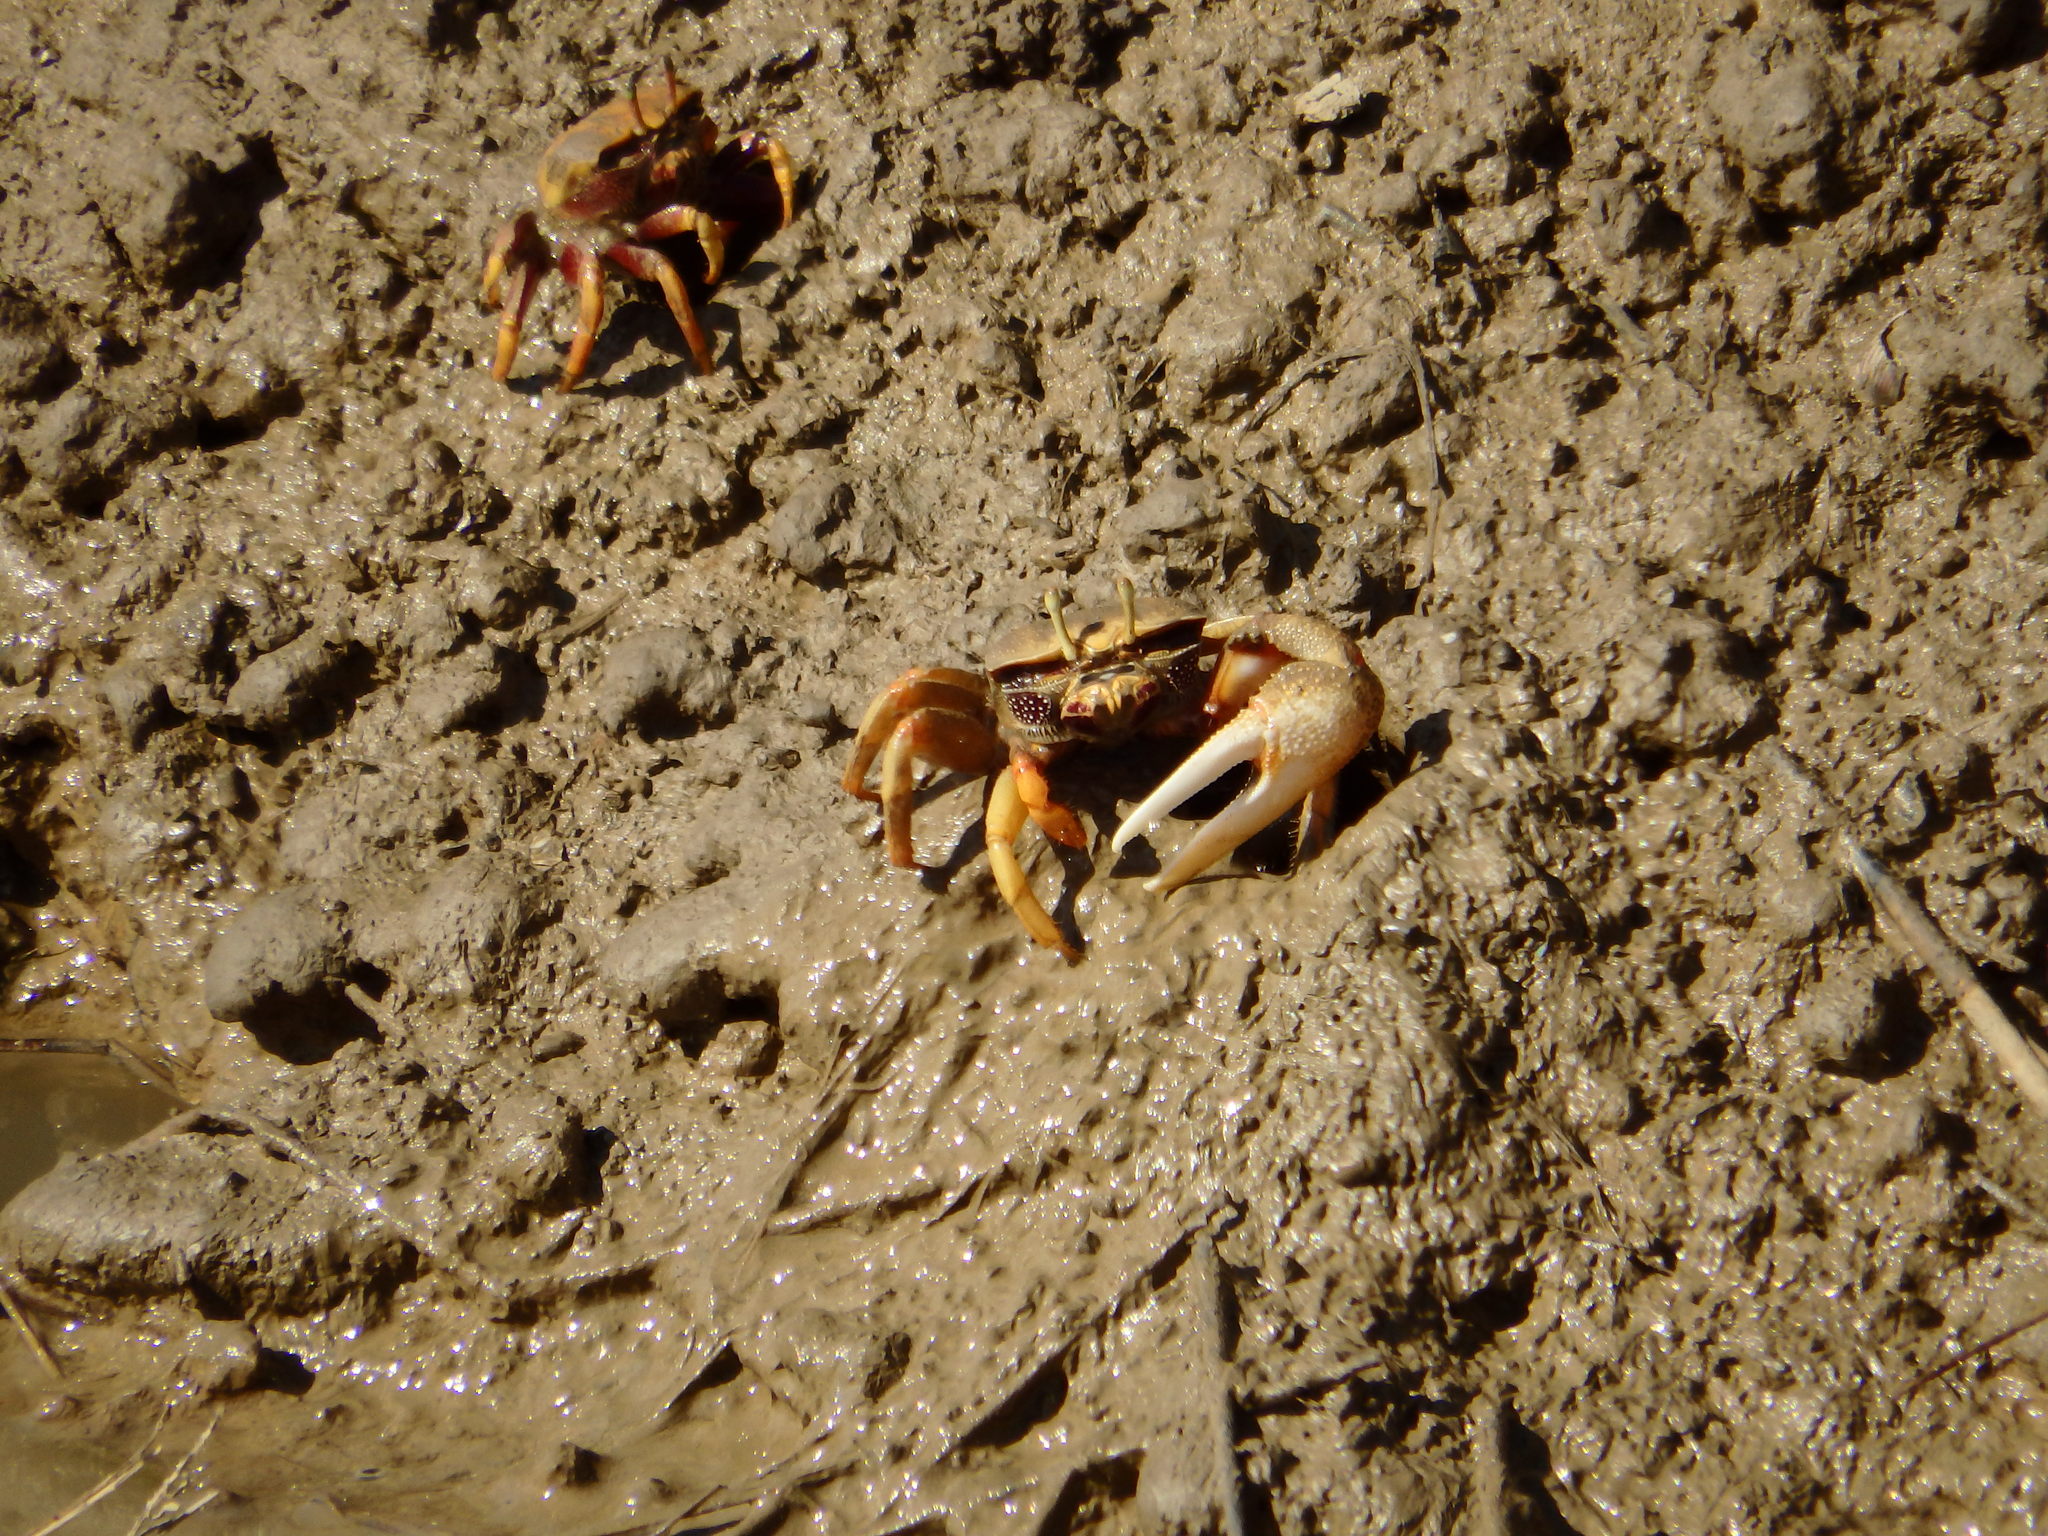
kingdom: Animalia
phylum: Arthropoda
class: Malacostraca
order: Decapoda
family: Ocypodidae
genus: Afruca
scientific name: Afruca tangeri
